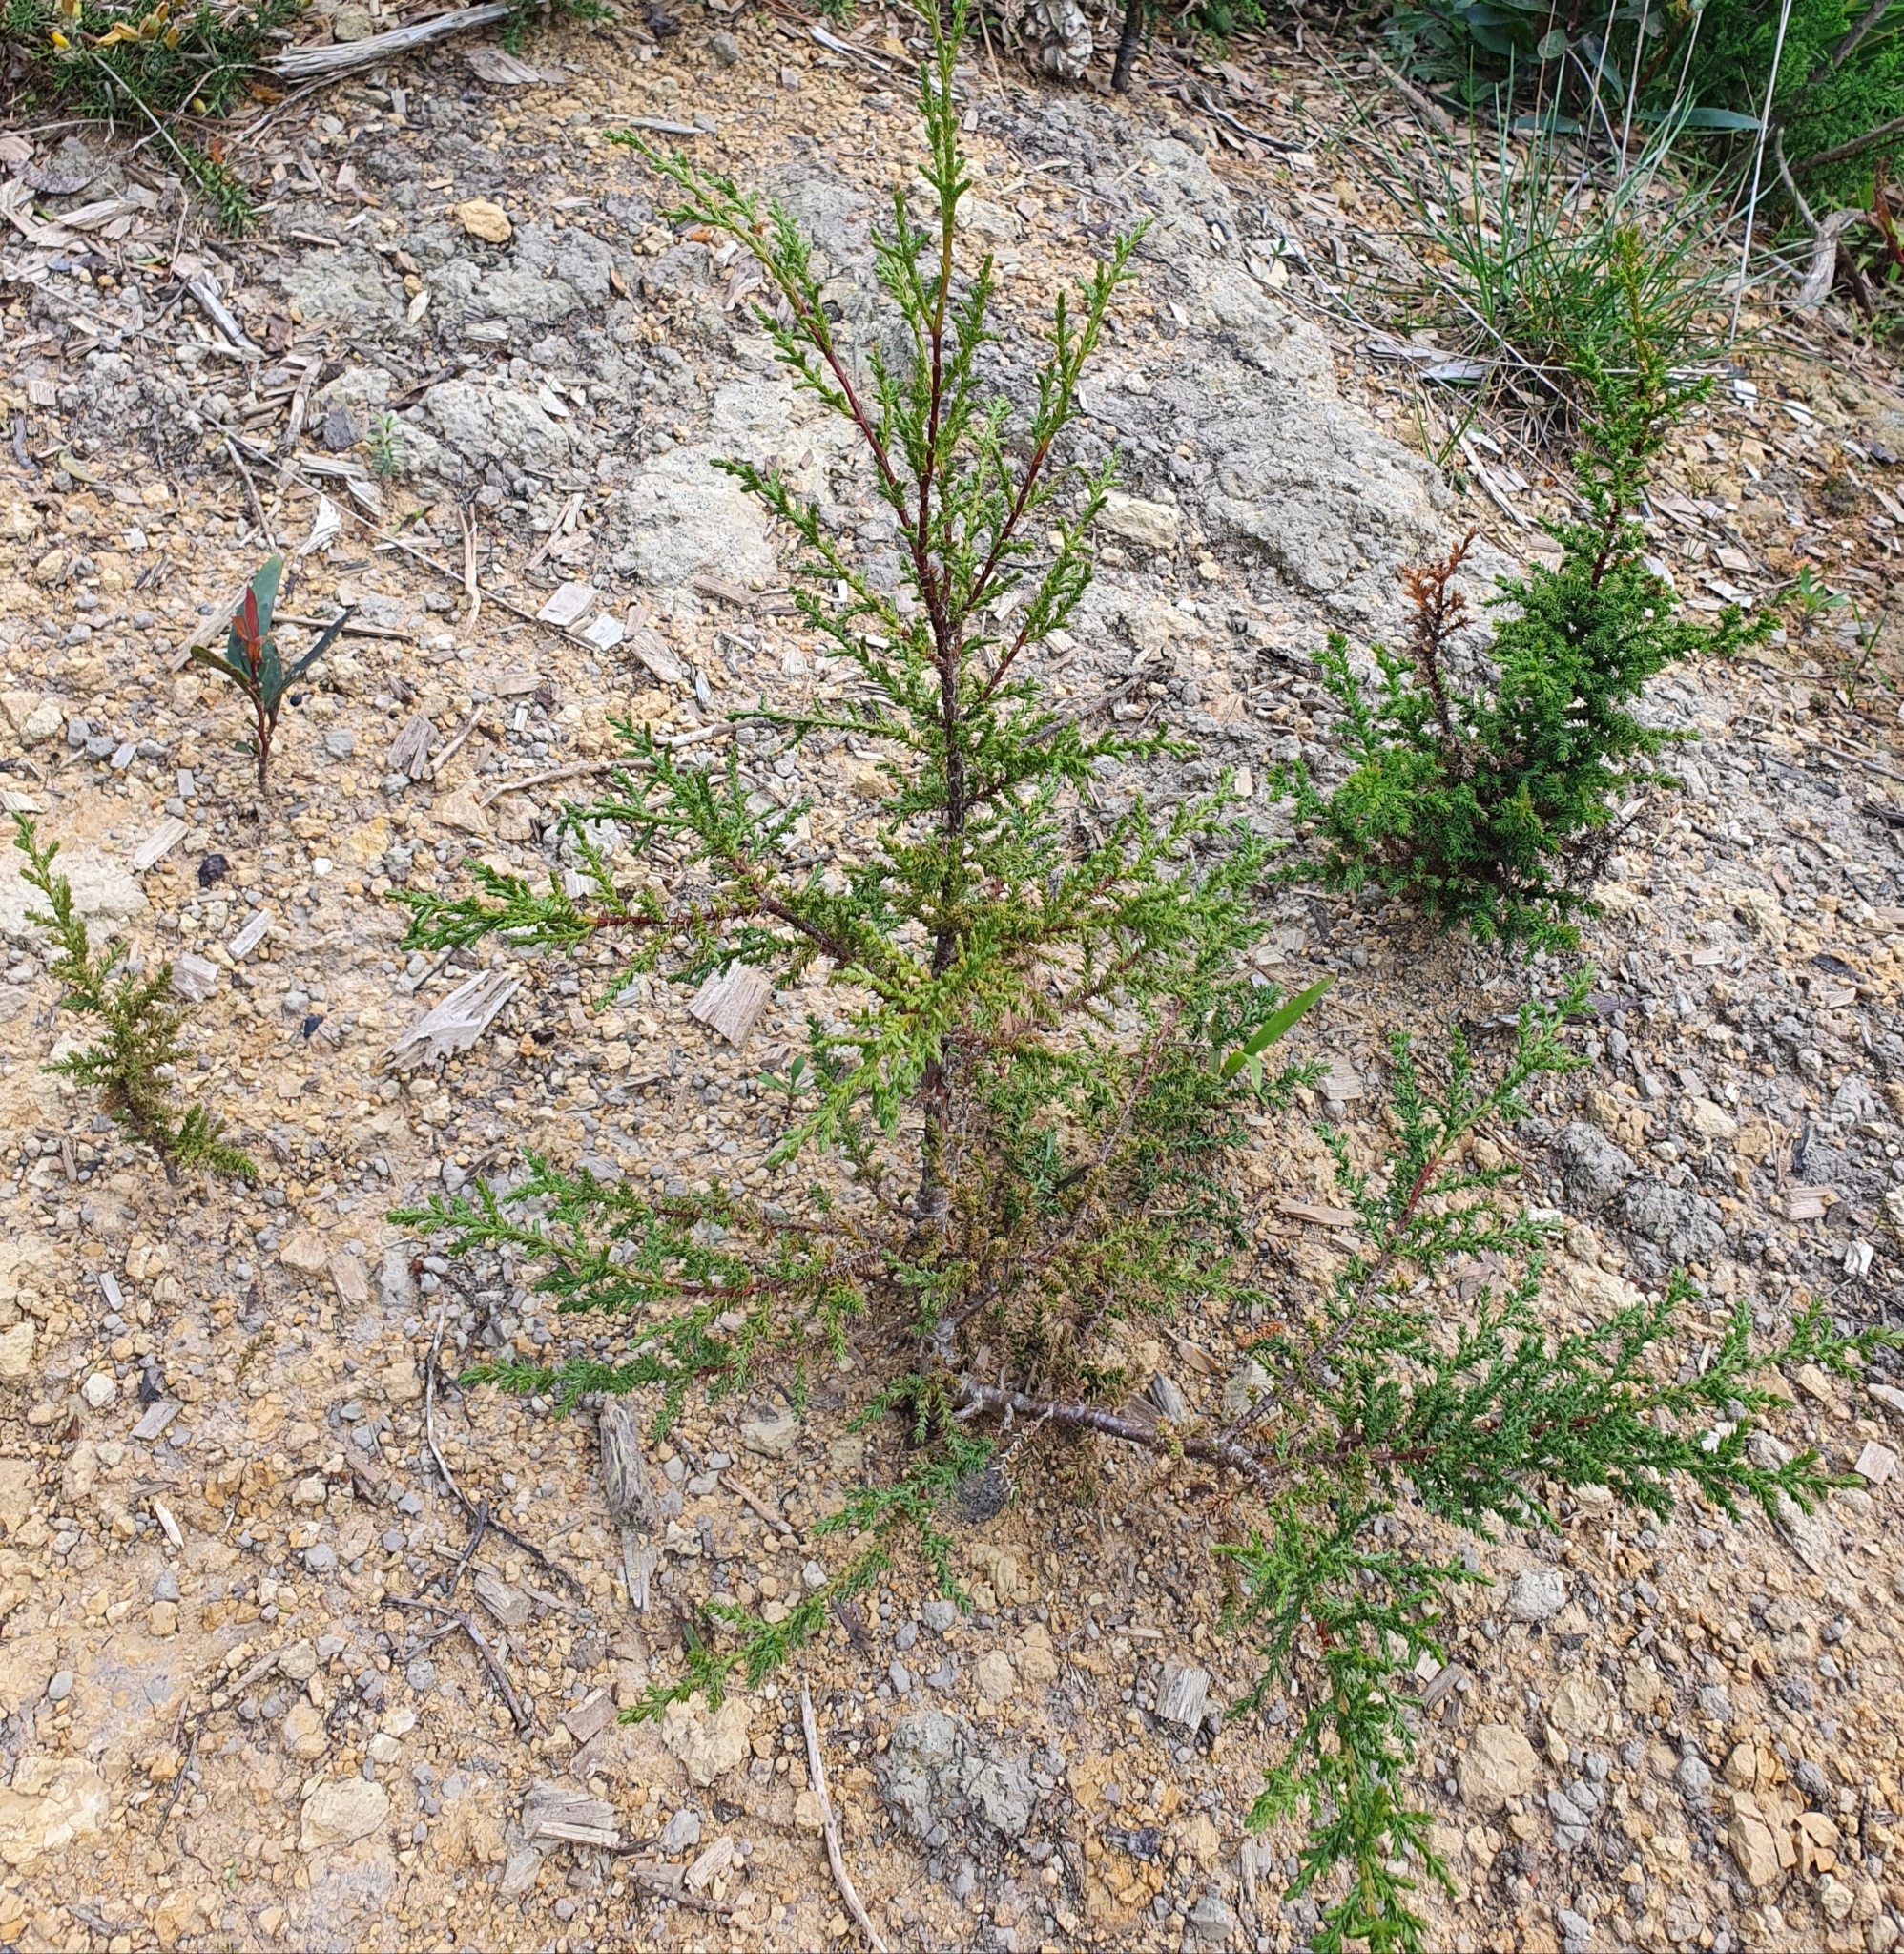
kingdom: Plantae
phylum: Tracheophyta
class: Pinopsida
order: Pinales
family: Cupressaceae
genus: Cupressus
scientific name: Cupressus macrocarpa
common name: Monterey cypress
